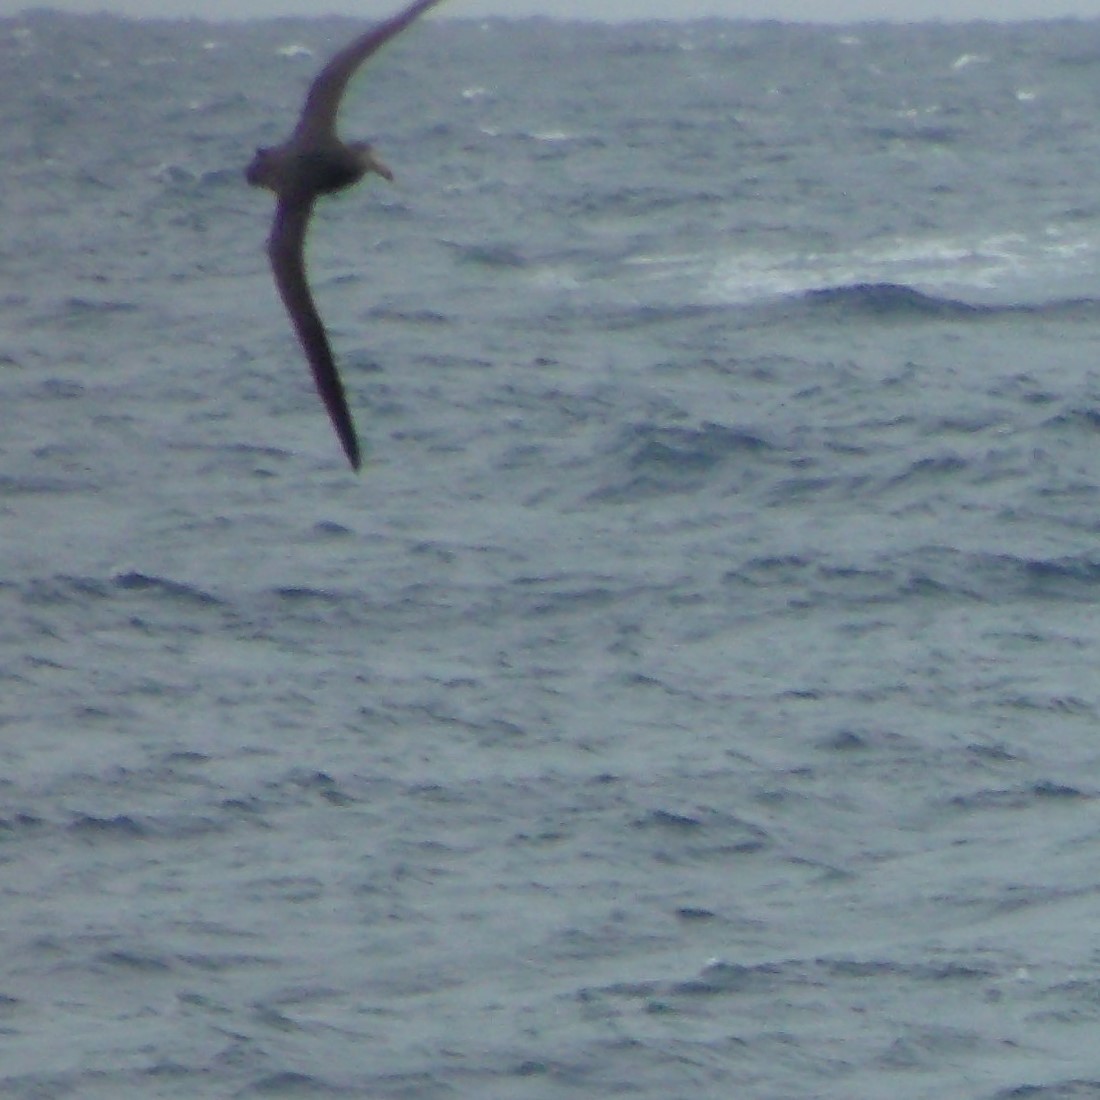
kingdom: Animalia
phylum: Chordata
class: Aves
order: Procellariiformes
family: Procellariidae
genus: Macronectes
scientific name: Macronectes halli
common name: Northern giant petrel
